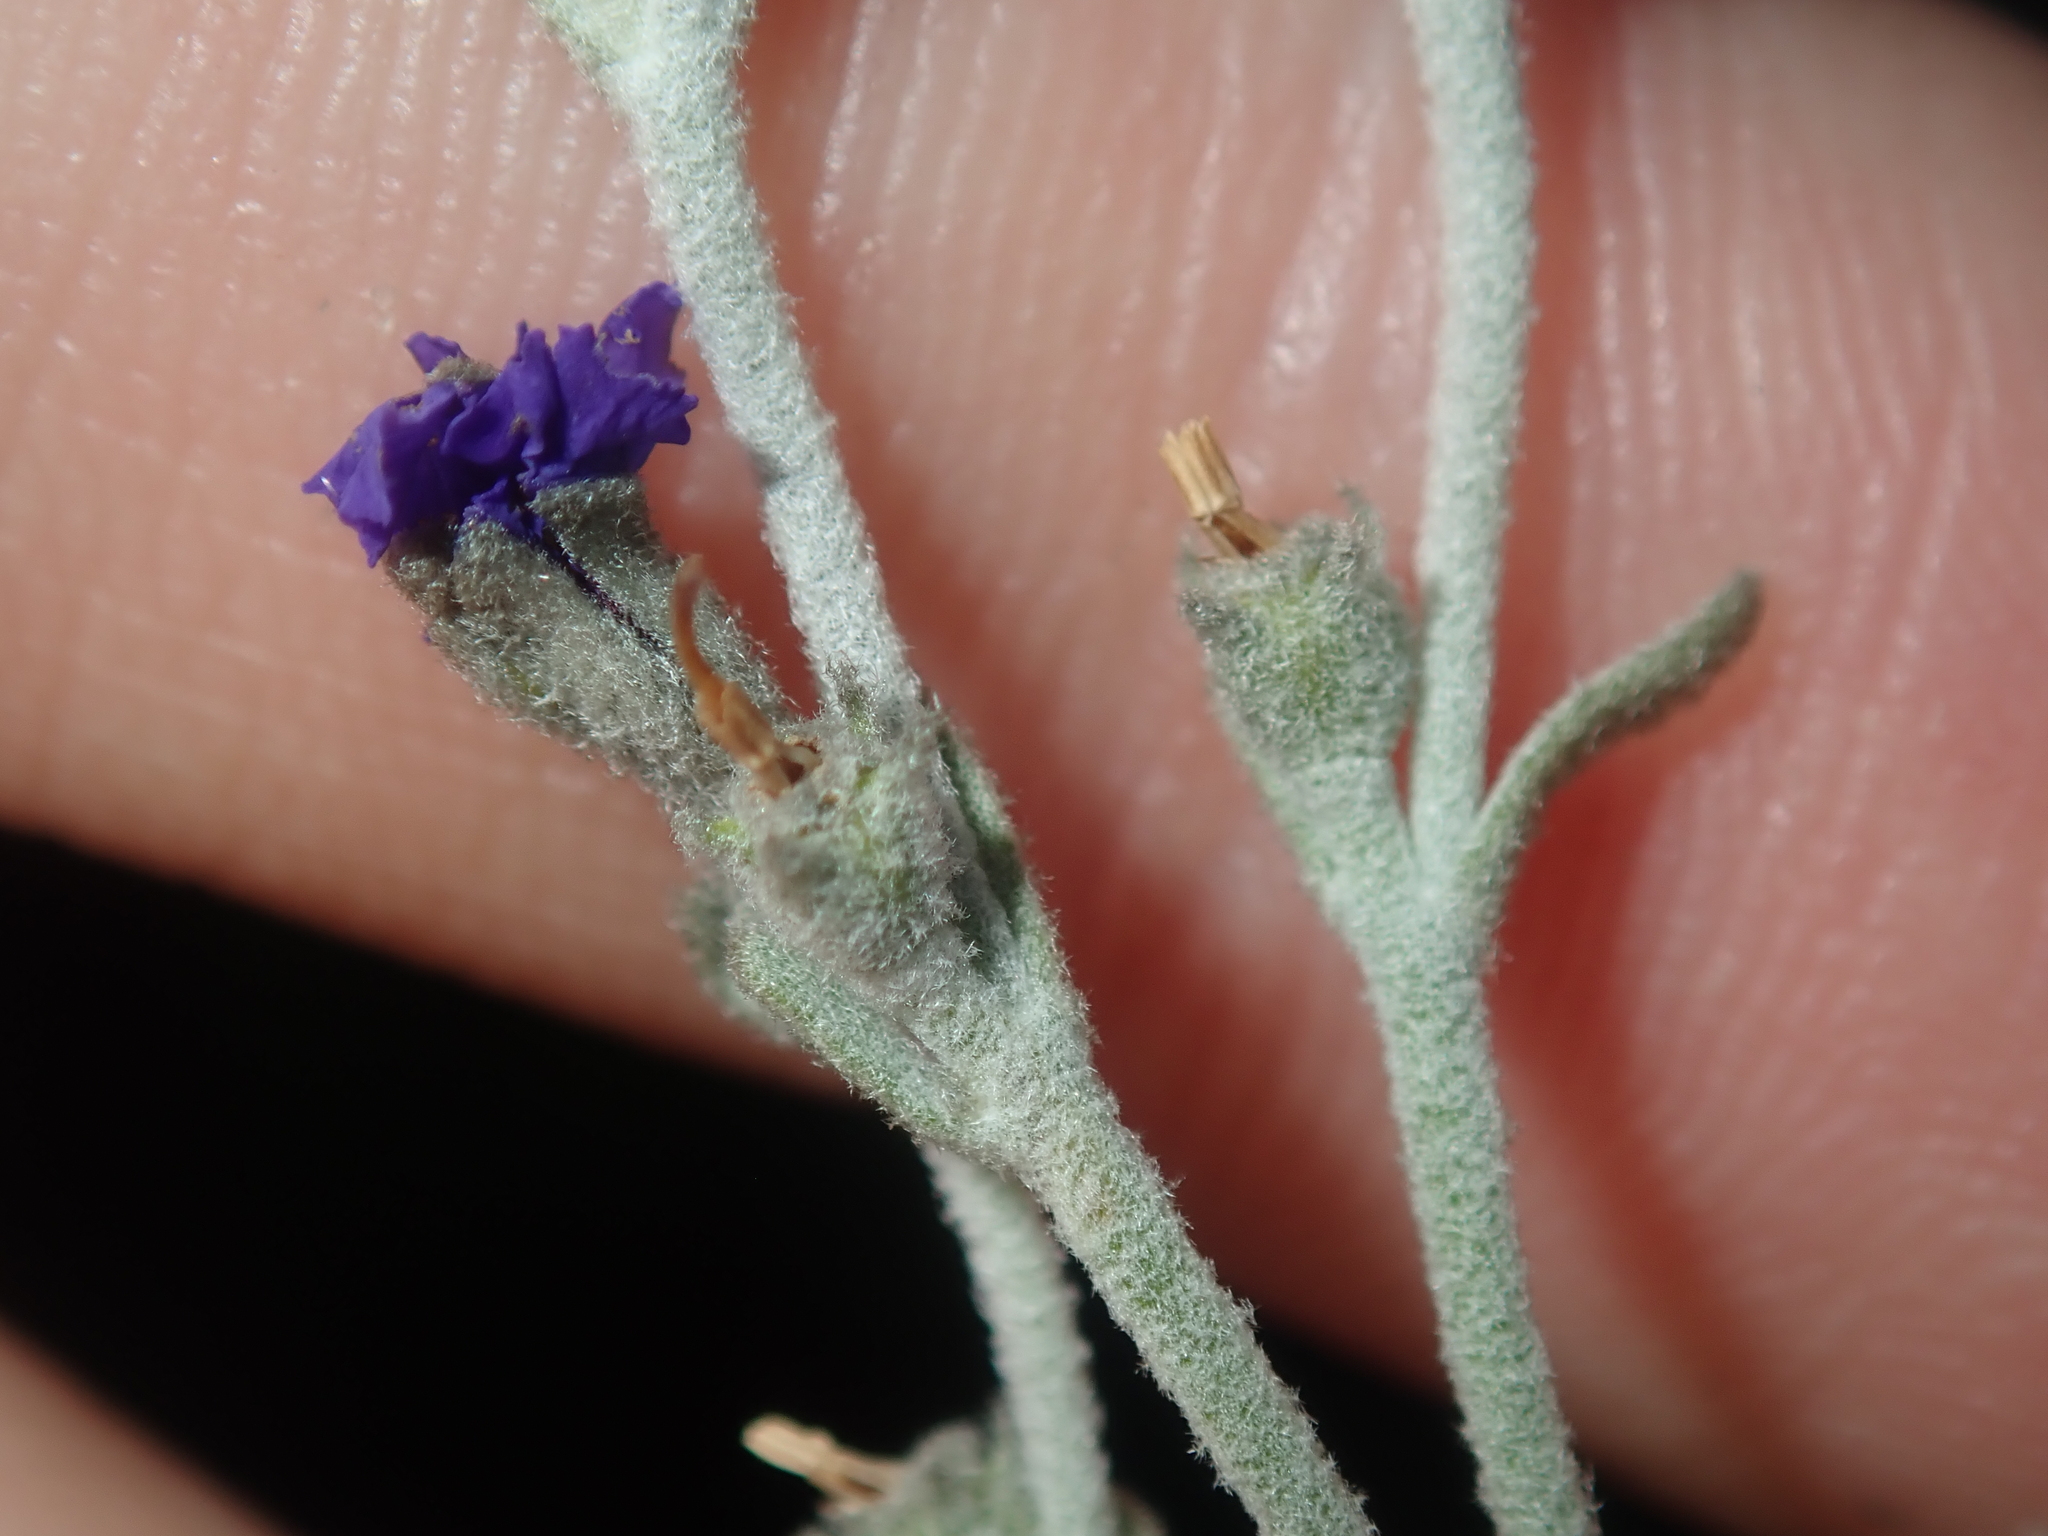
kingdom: Plantae
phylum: Tracheophyta
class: Magnoliopsida
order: Asterales
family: Goodeniaceae
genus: Dampiera
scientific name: Dampiera incana
